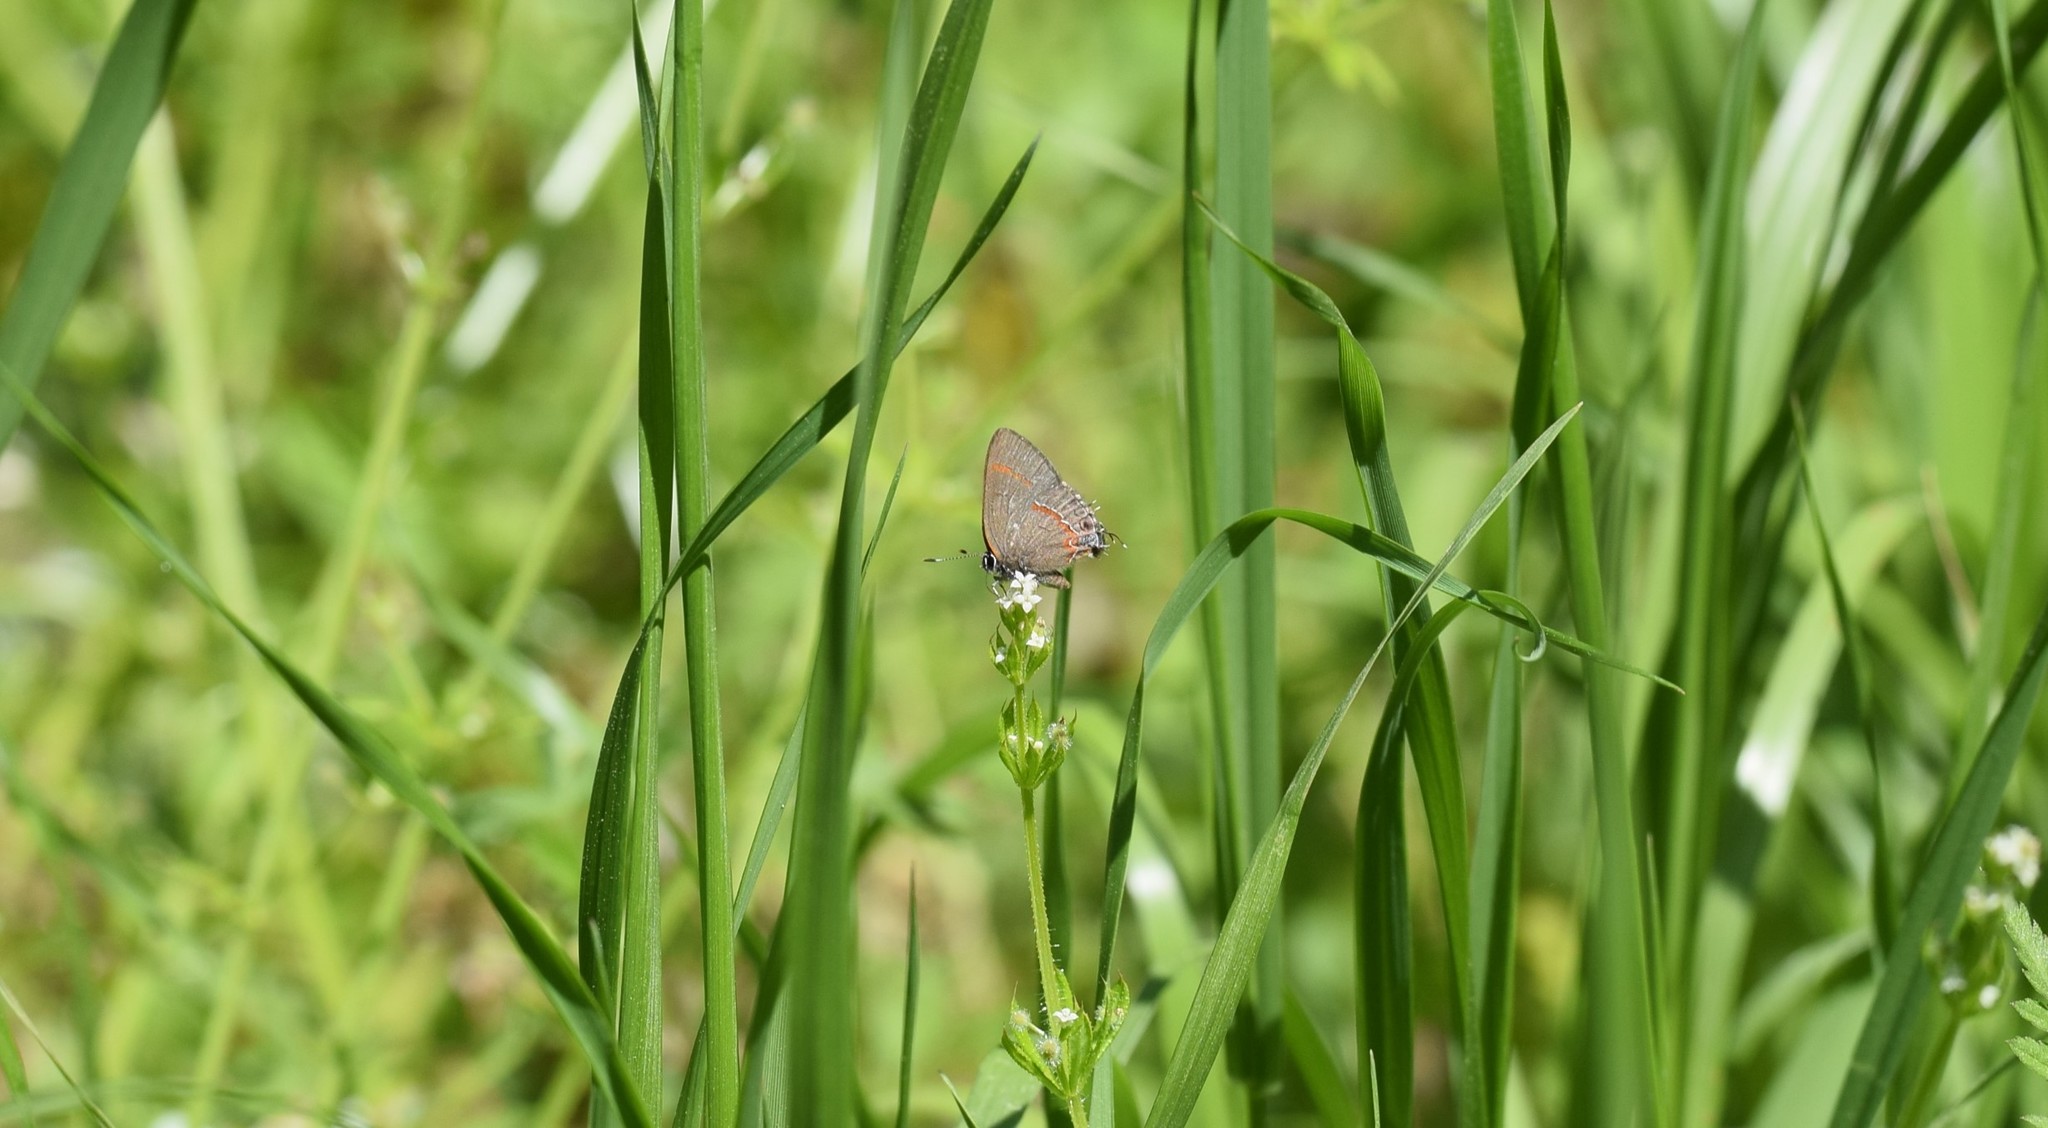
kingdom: Animalia
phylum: Arthropoda
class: Insecta
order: Lepidoptera
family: Lycaenidae
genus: Calycopis
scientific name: Calycopis cecrops
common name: Red-banded hairstreak
